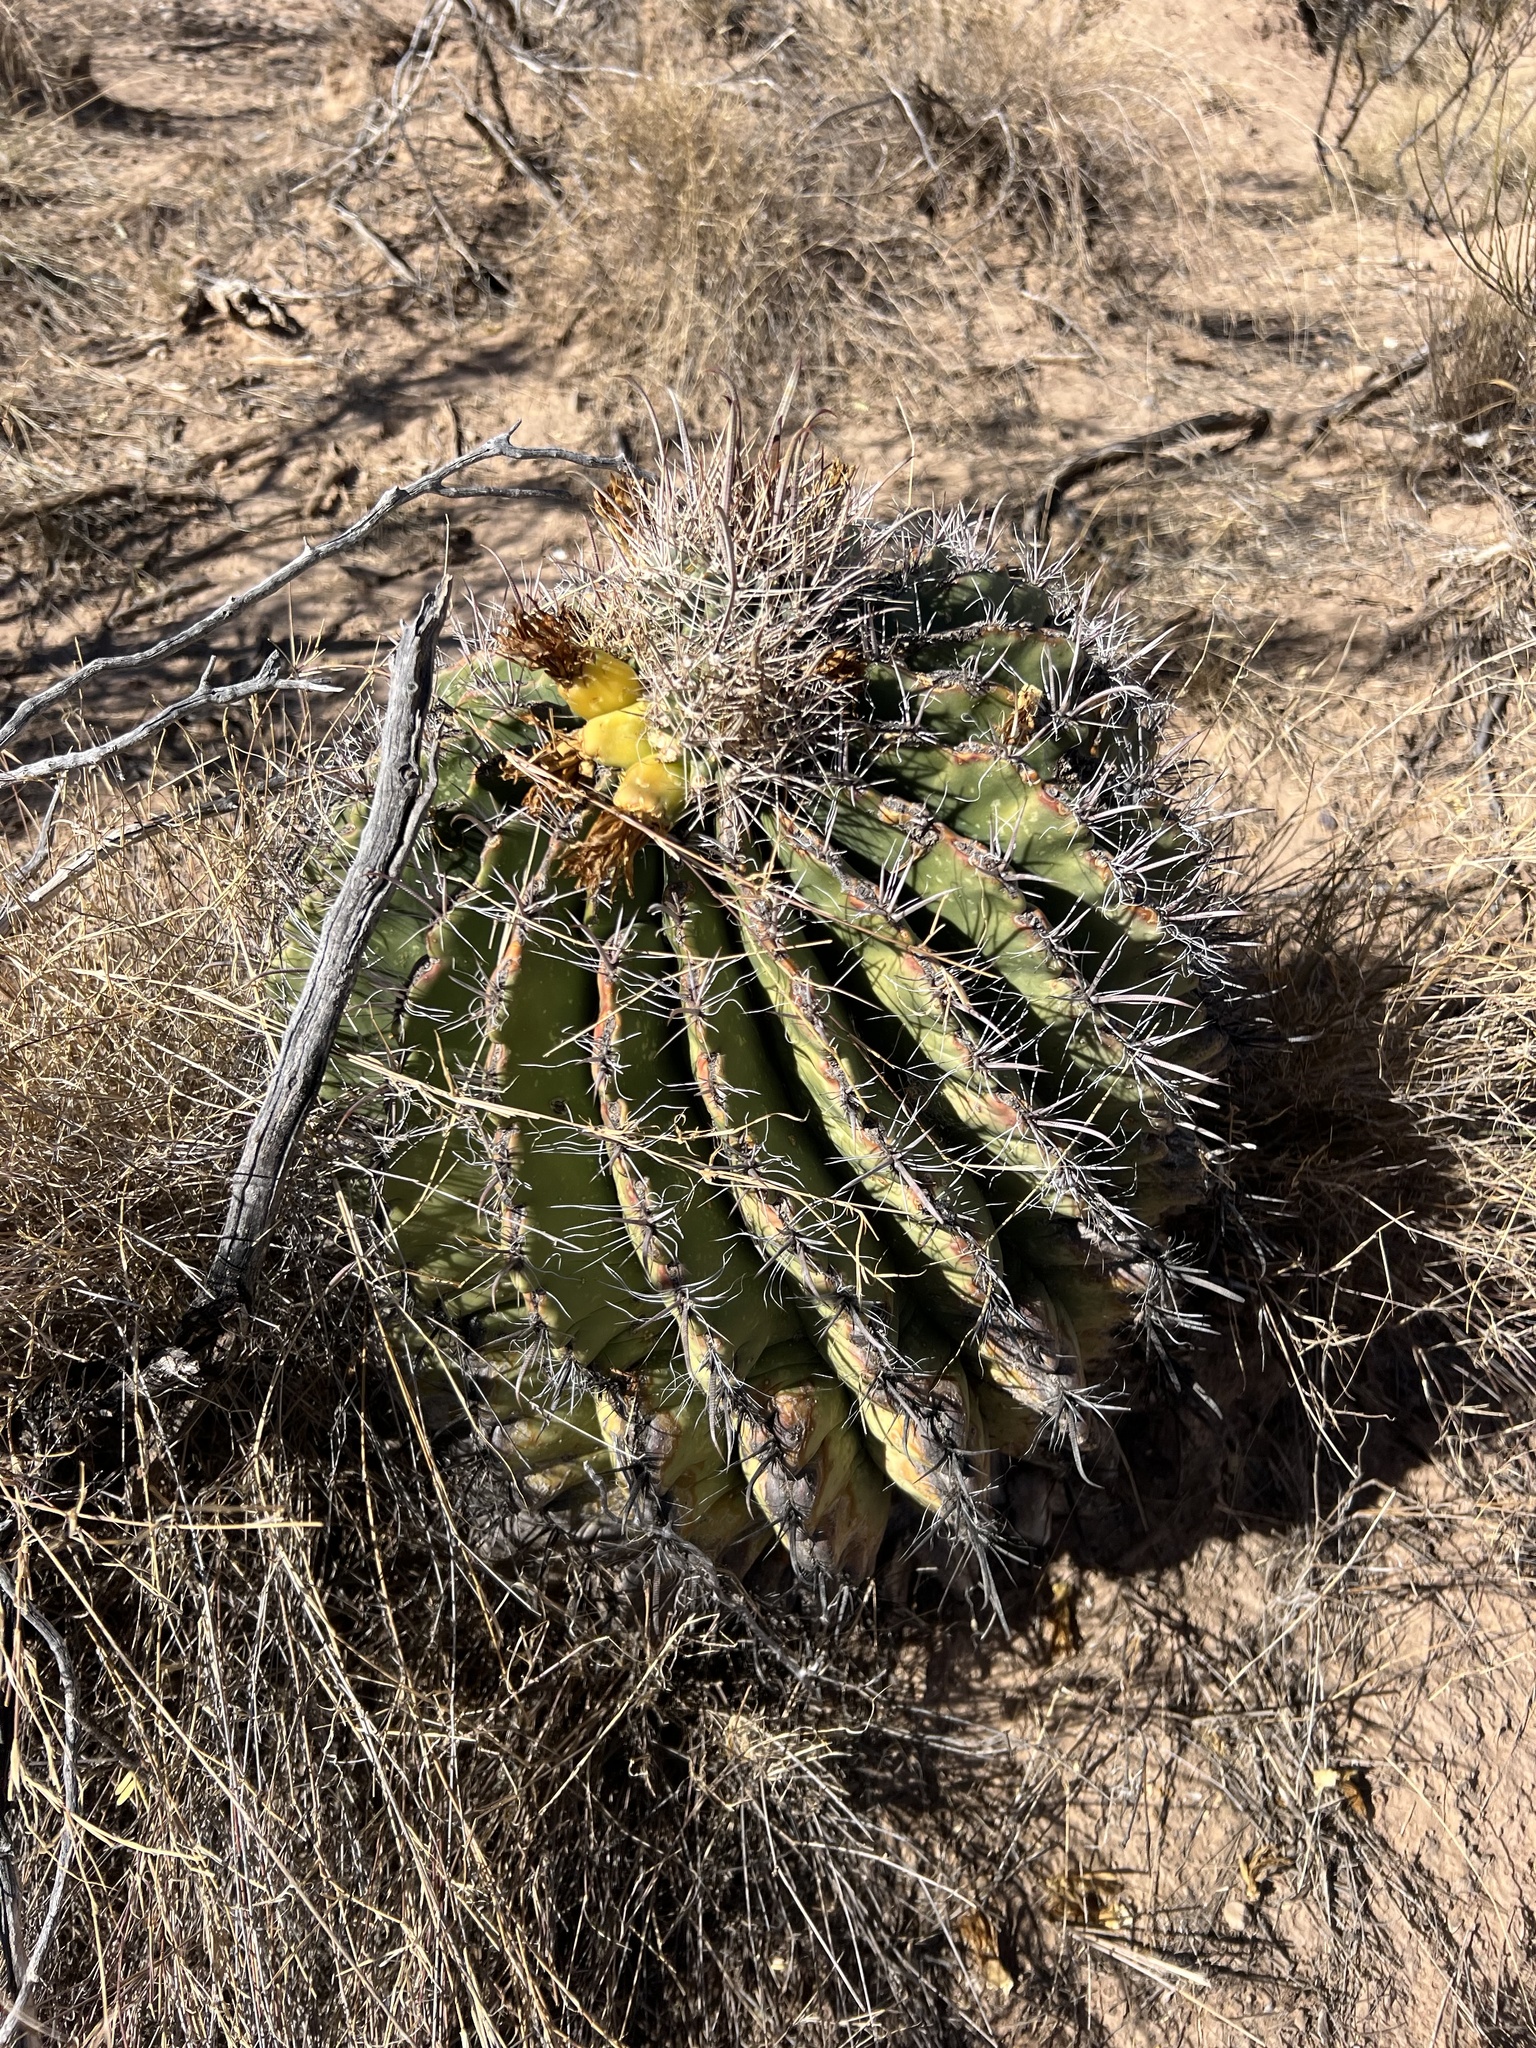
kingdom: Plantae
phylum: Tracheophyta
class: Magnoliopsida
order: Caryophyllales
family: Cactaceae
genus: Ferocactus
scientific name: Ferocactus wislizeni
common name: Candy barrel cactus
